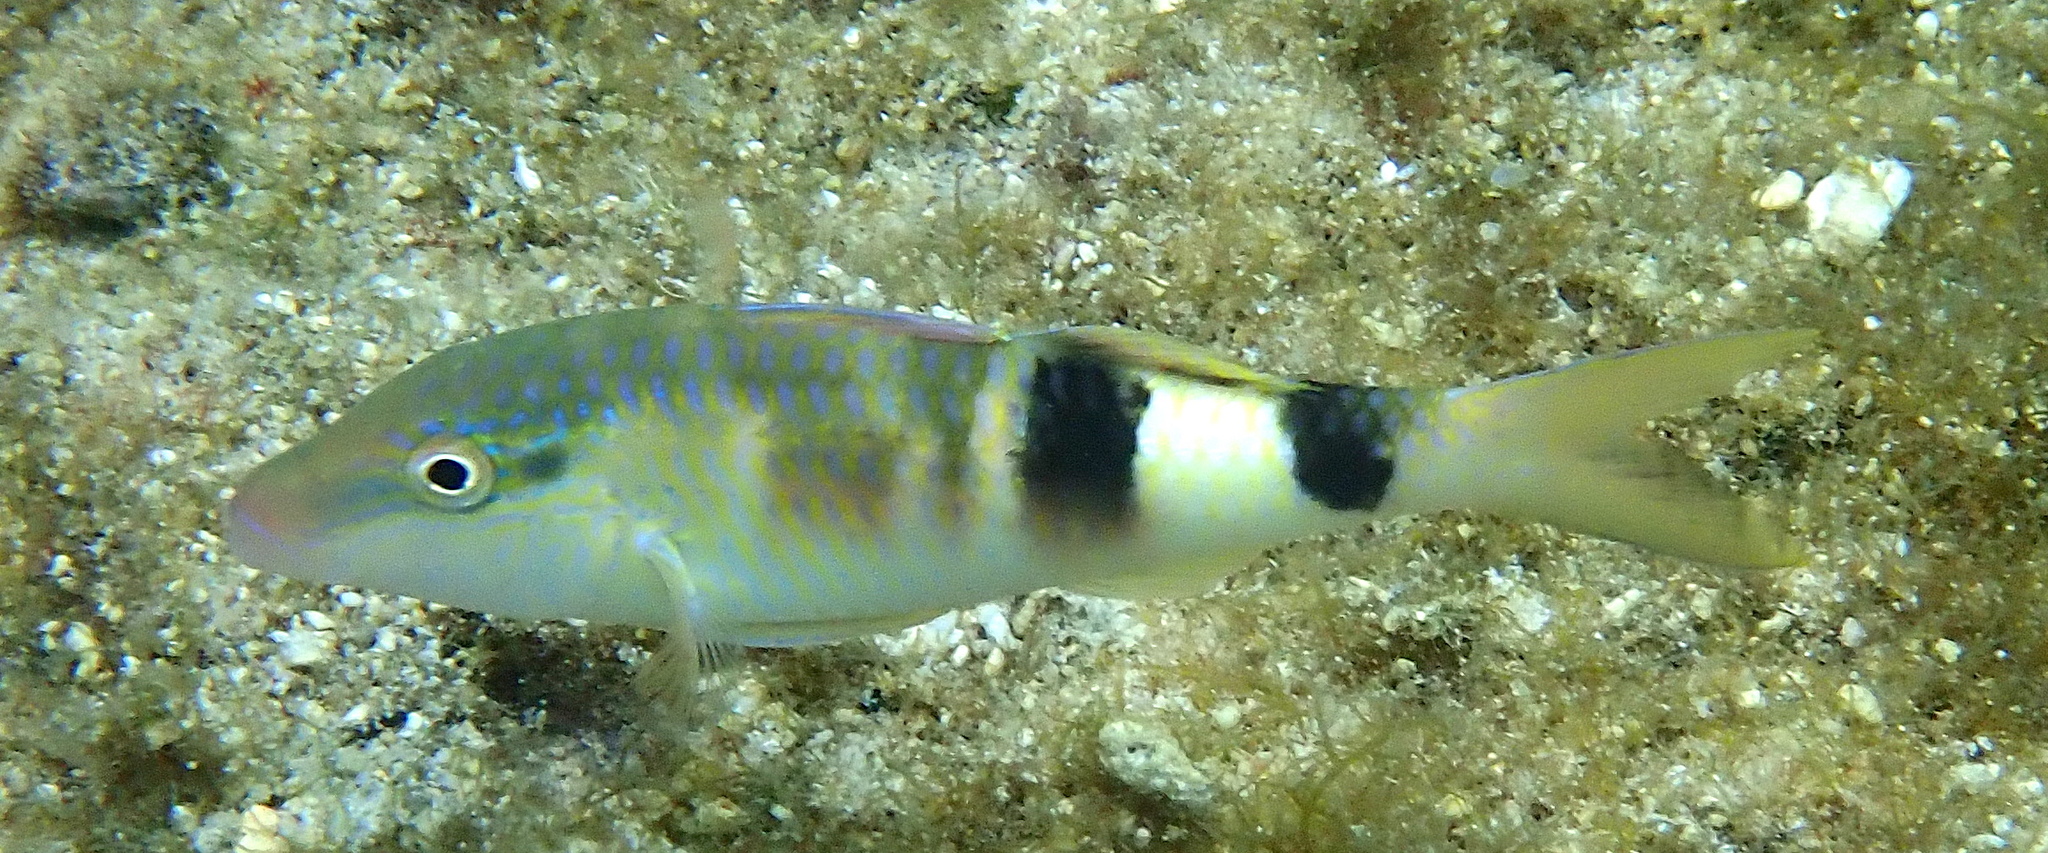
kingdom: Animalia
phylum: Chordata
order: Perciformes
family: Mullidae
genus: Parupeneus
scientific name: Parupeneus multifasciatus
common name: Manybar goatfish
